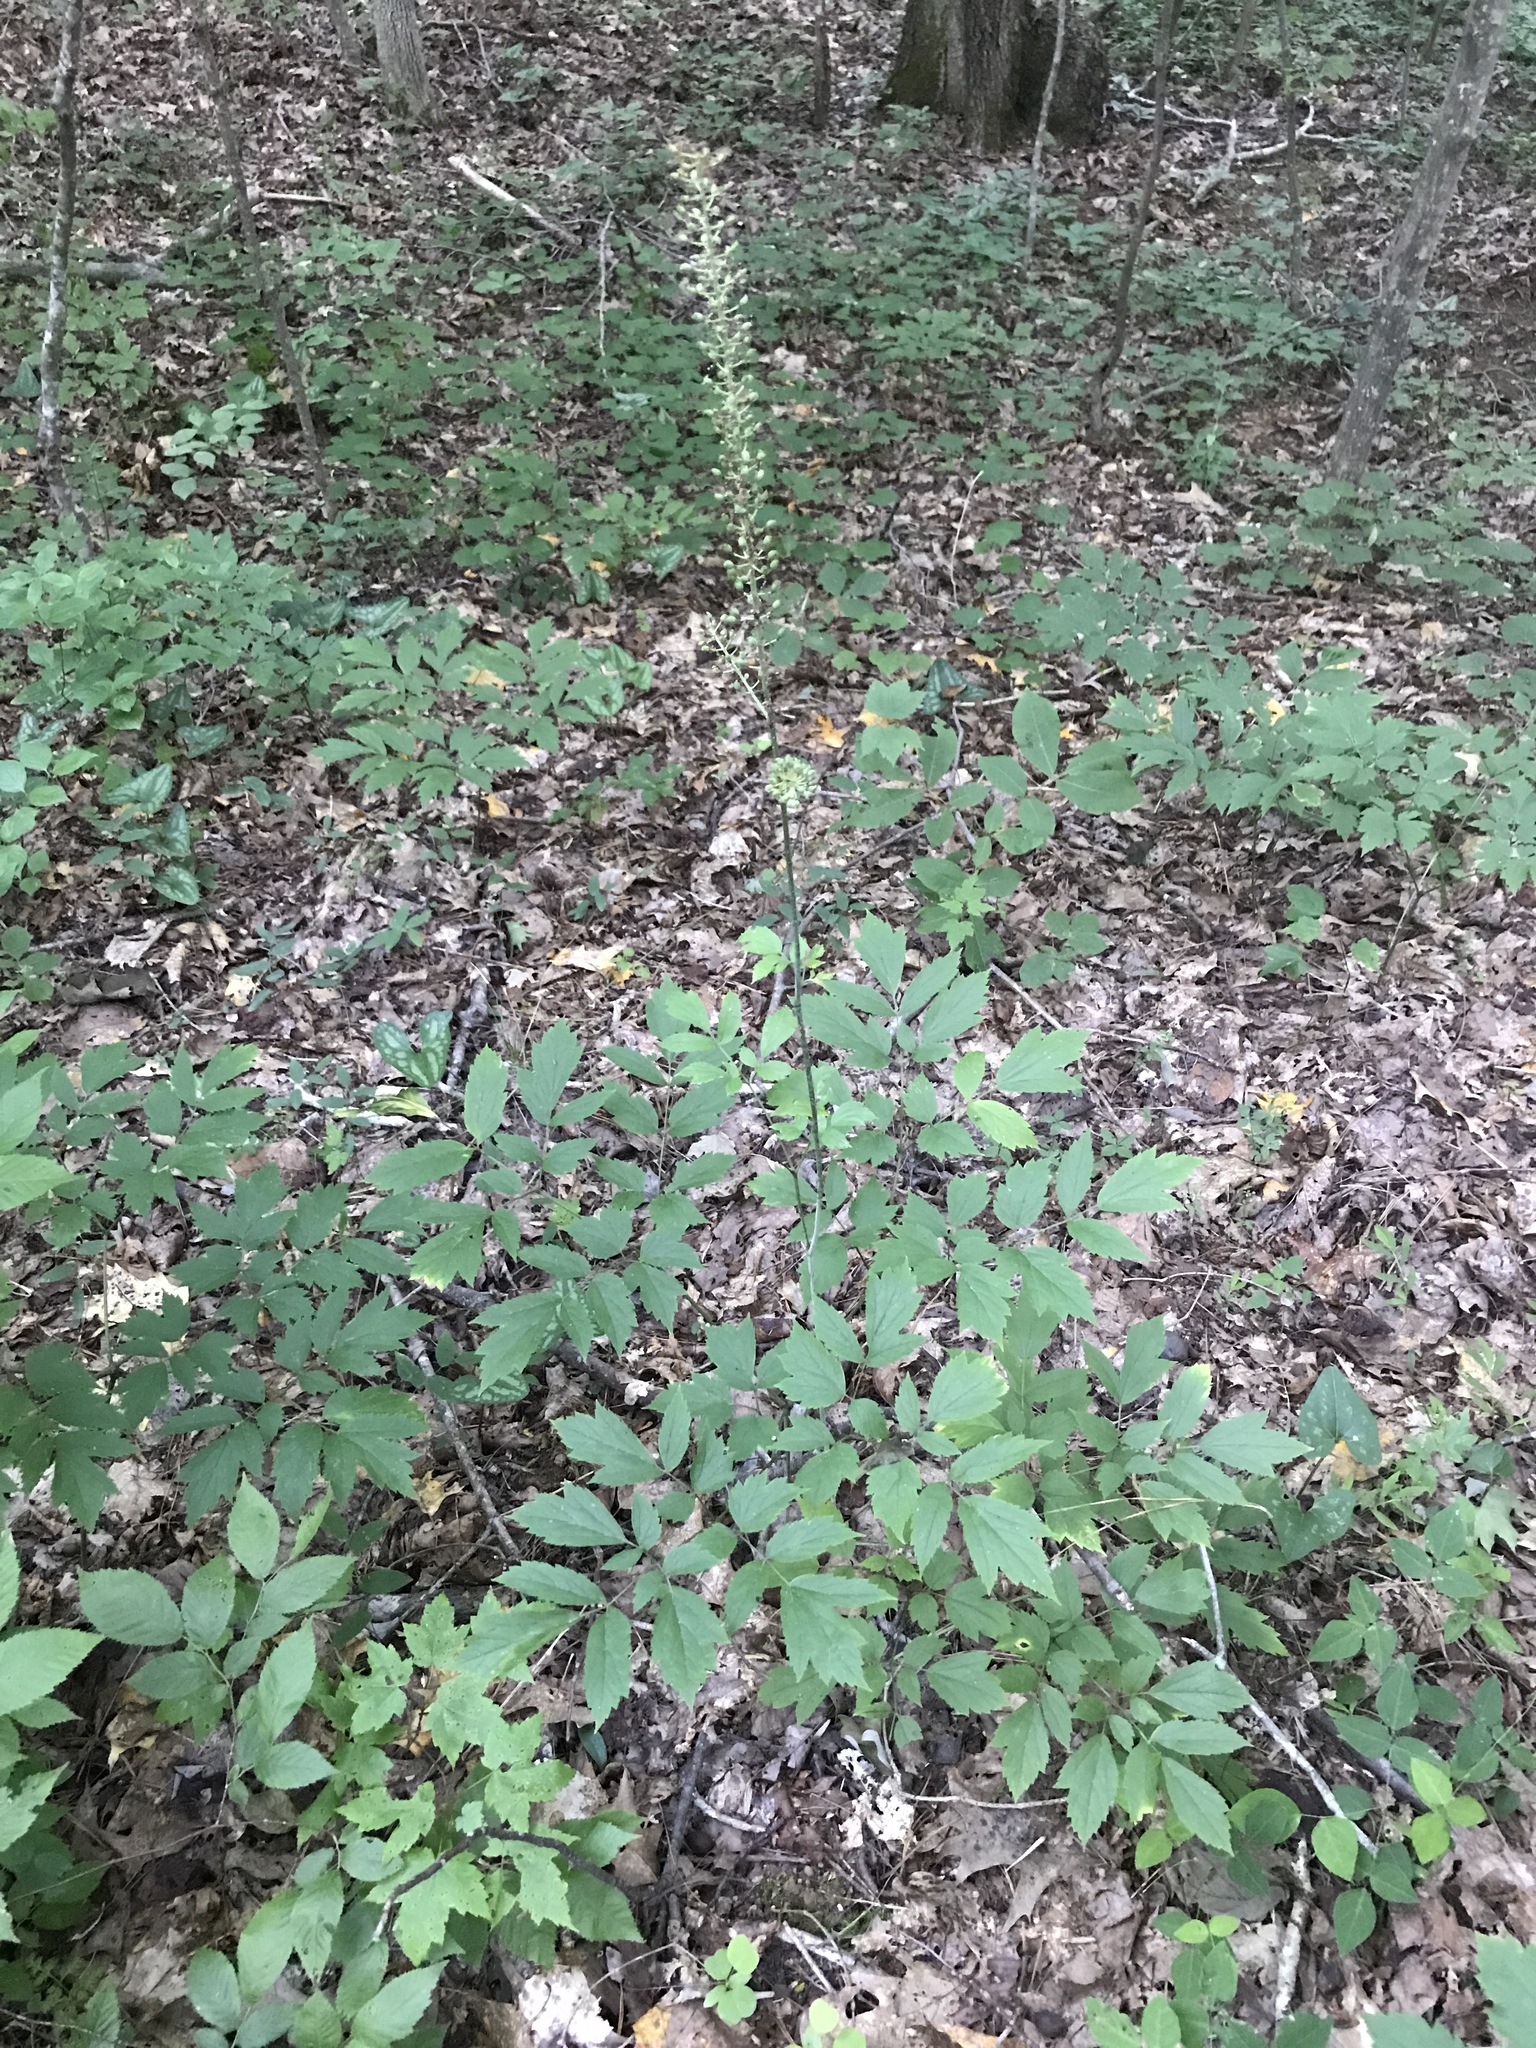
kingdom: Plantae
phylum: Tracheophyta
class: Magnoliopsida
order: Ranunculales
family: Ranunculaceae
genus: Actaea
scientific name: Actaea racemosa
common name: Black cohosh
